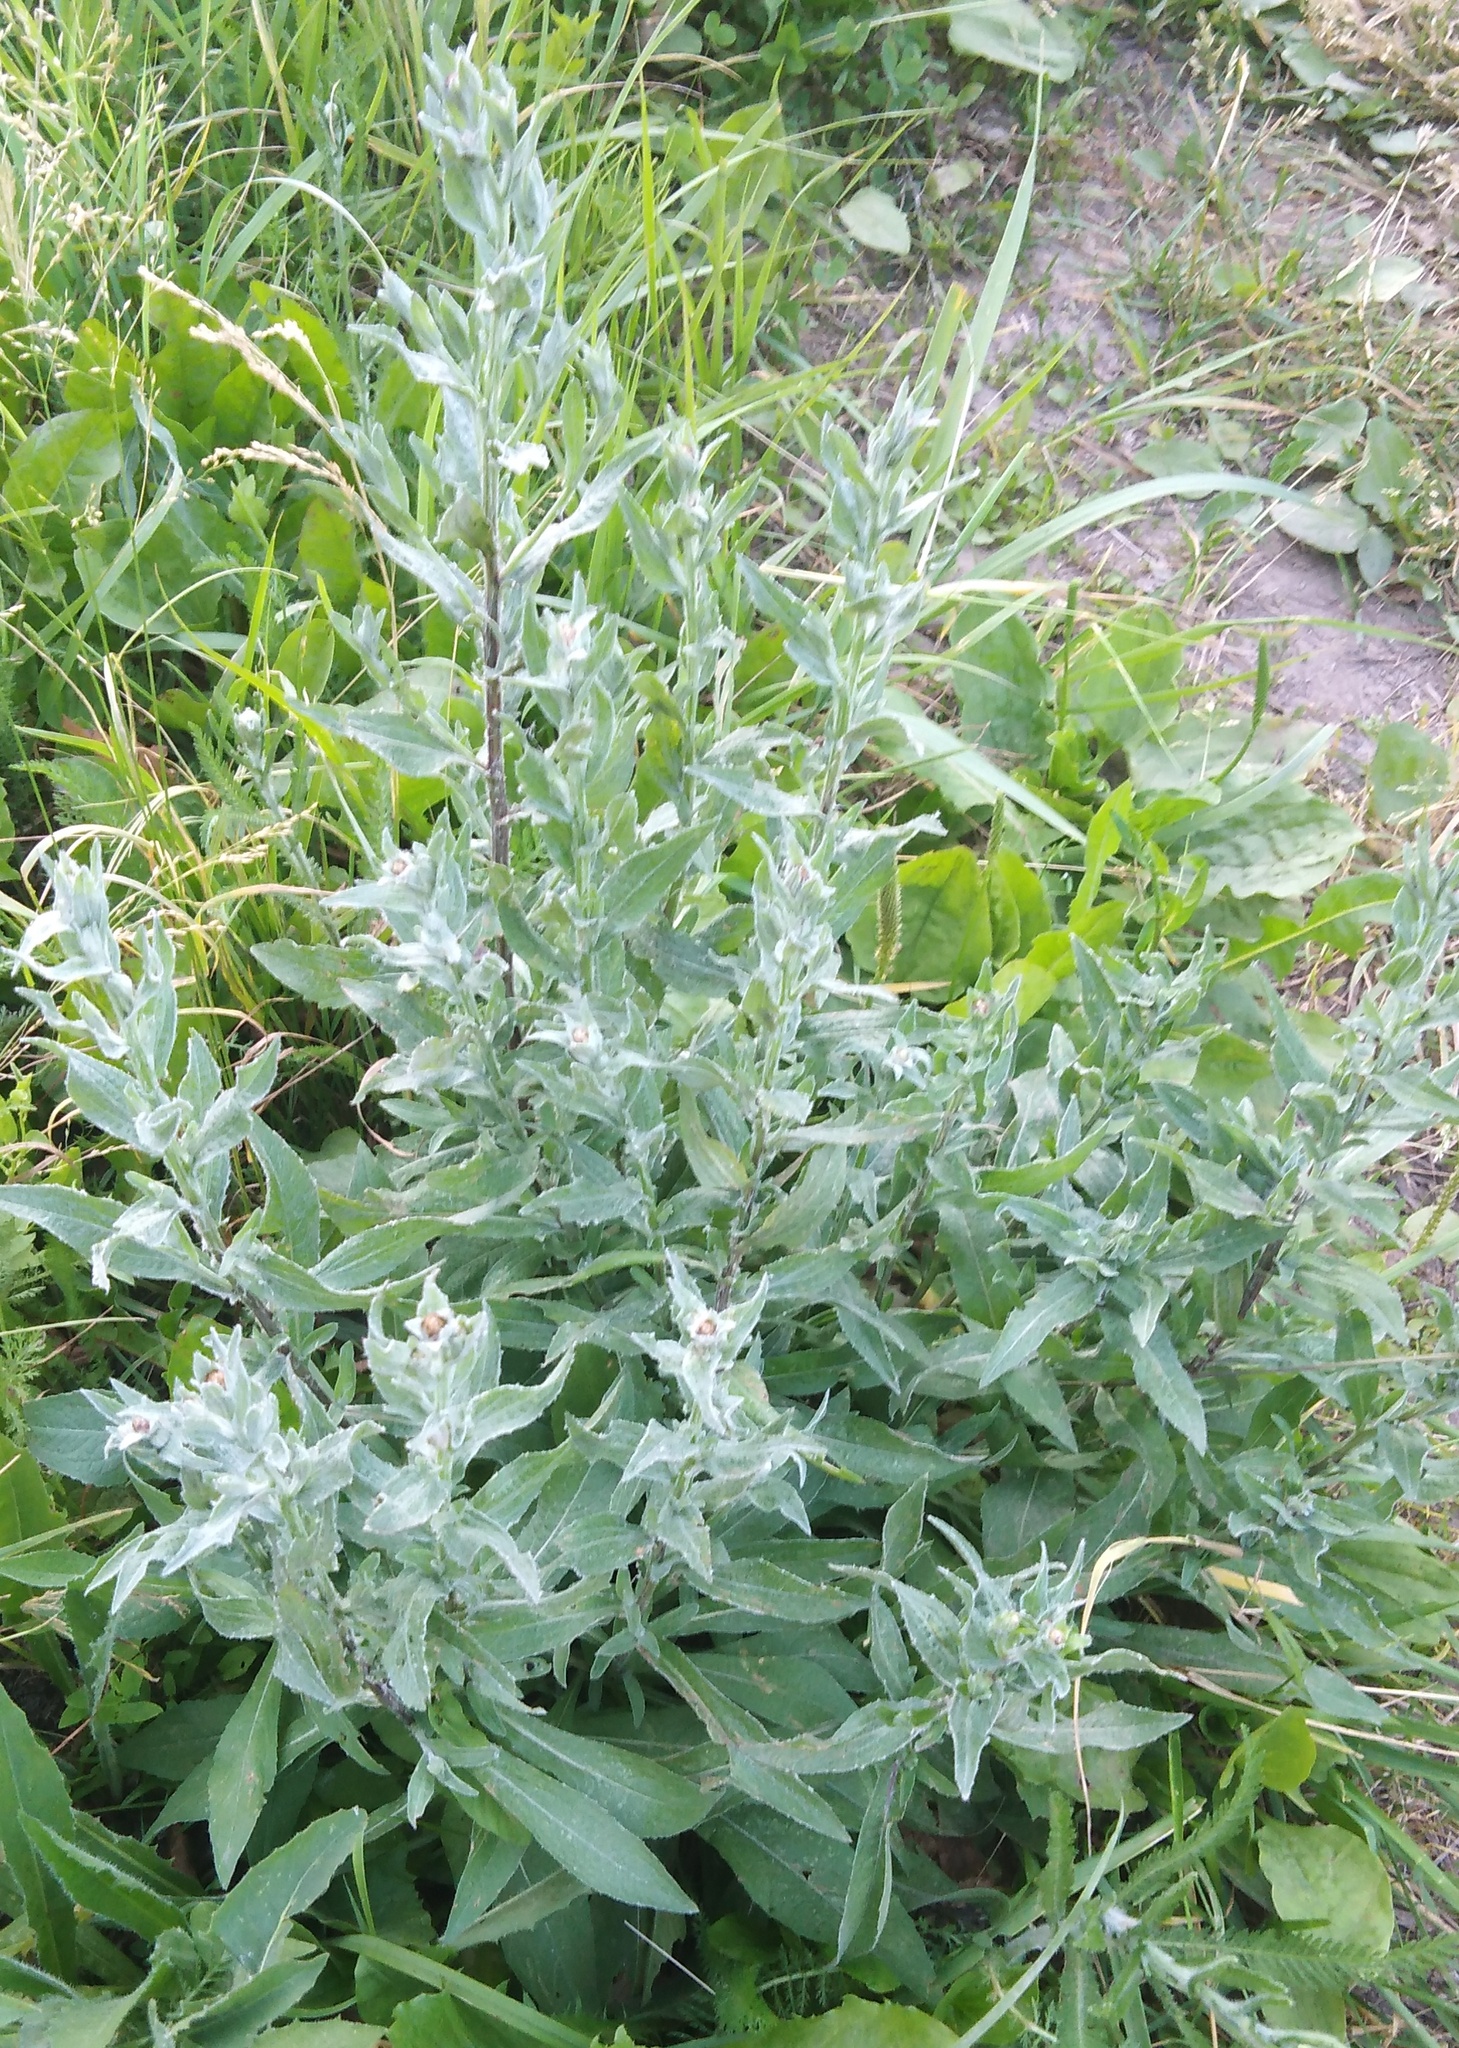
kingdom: Plantae
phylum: Tracheophyta
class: Magnoliopsida
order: Asterales
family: Asteraceae
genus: Centaurea
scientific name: Centaurea jacea
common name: Brown knapweed
